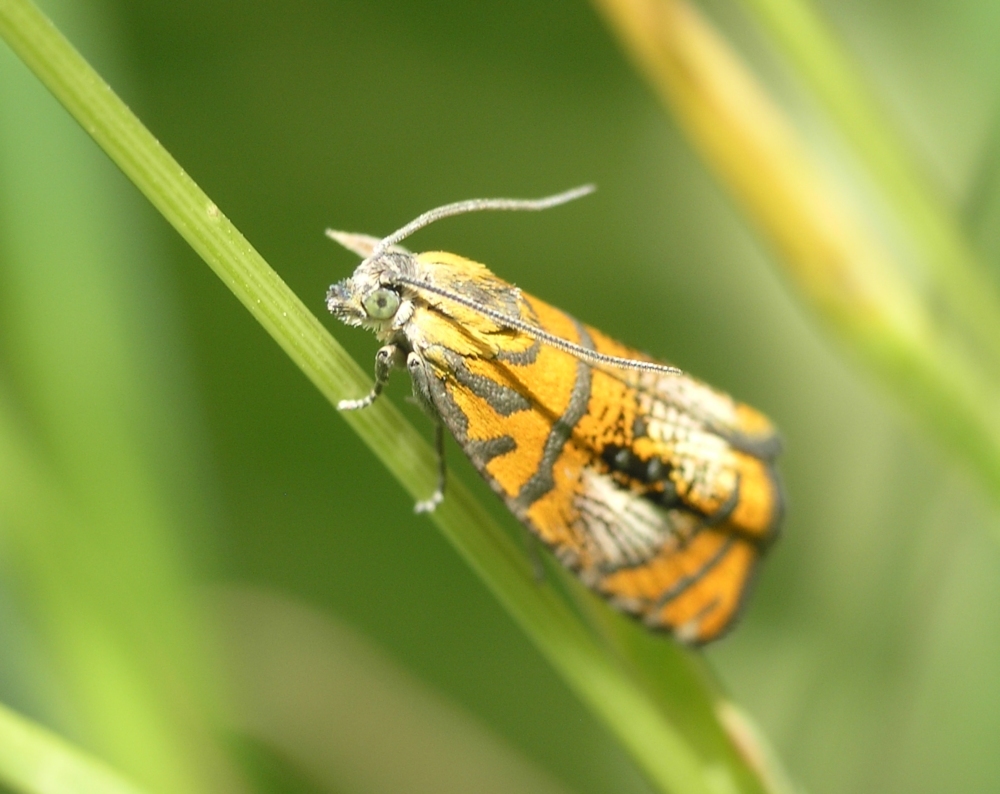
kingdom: Animalia
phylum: Arthropoda
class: Insecta
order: Lepidoptera
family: Tortricidae
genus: Olethreutes
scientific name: Olethreutes arcuella
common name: Arched marble
